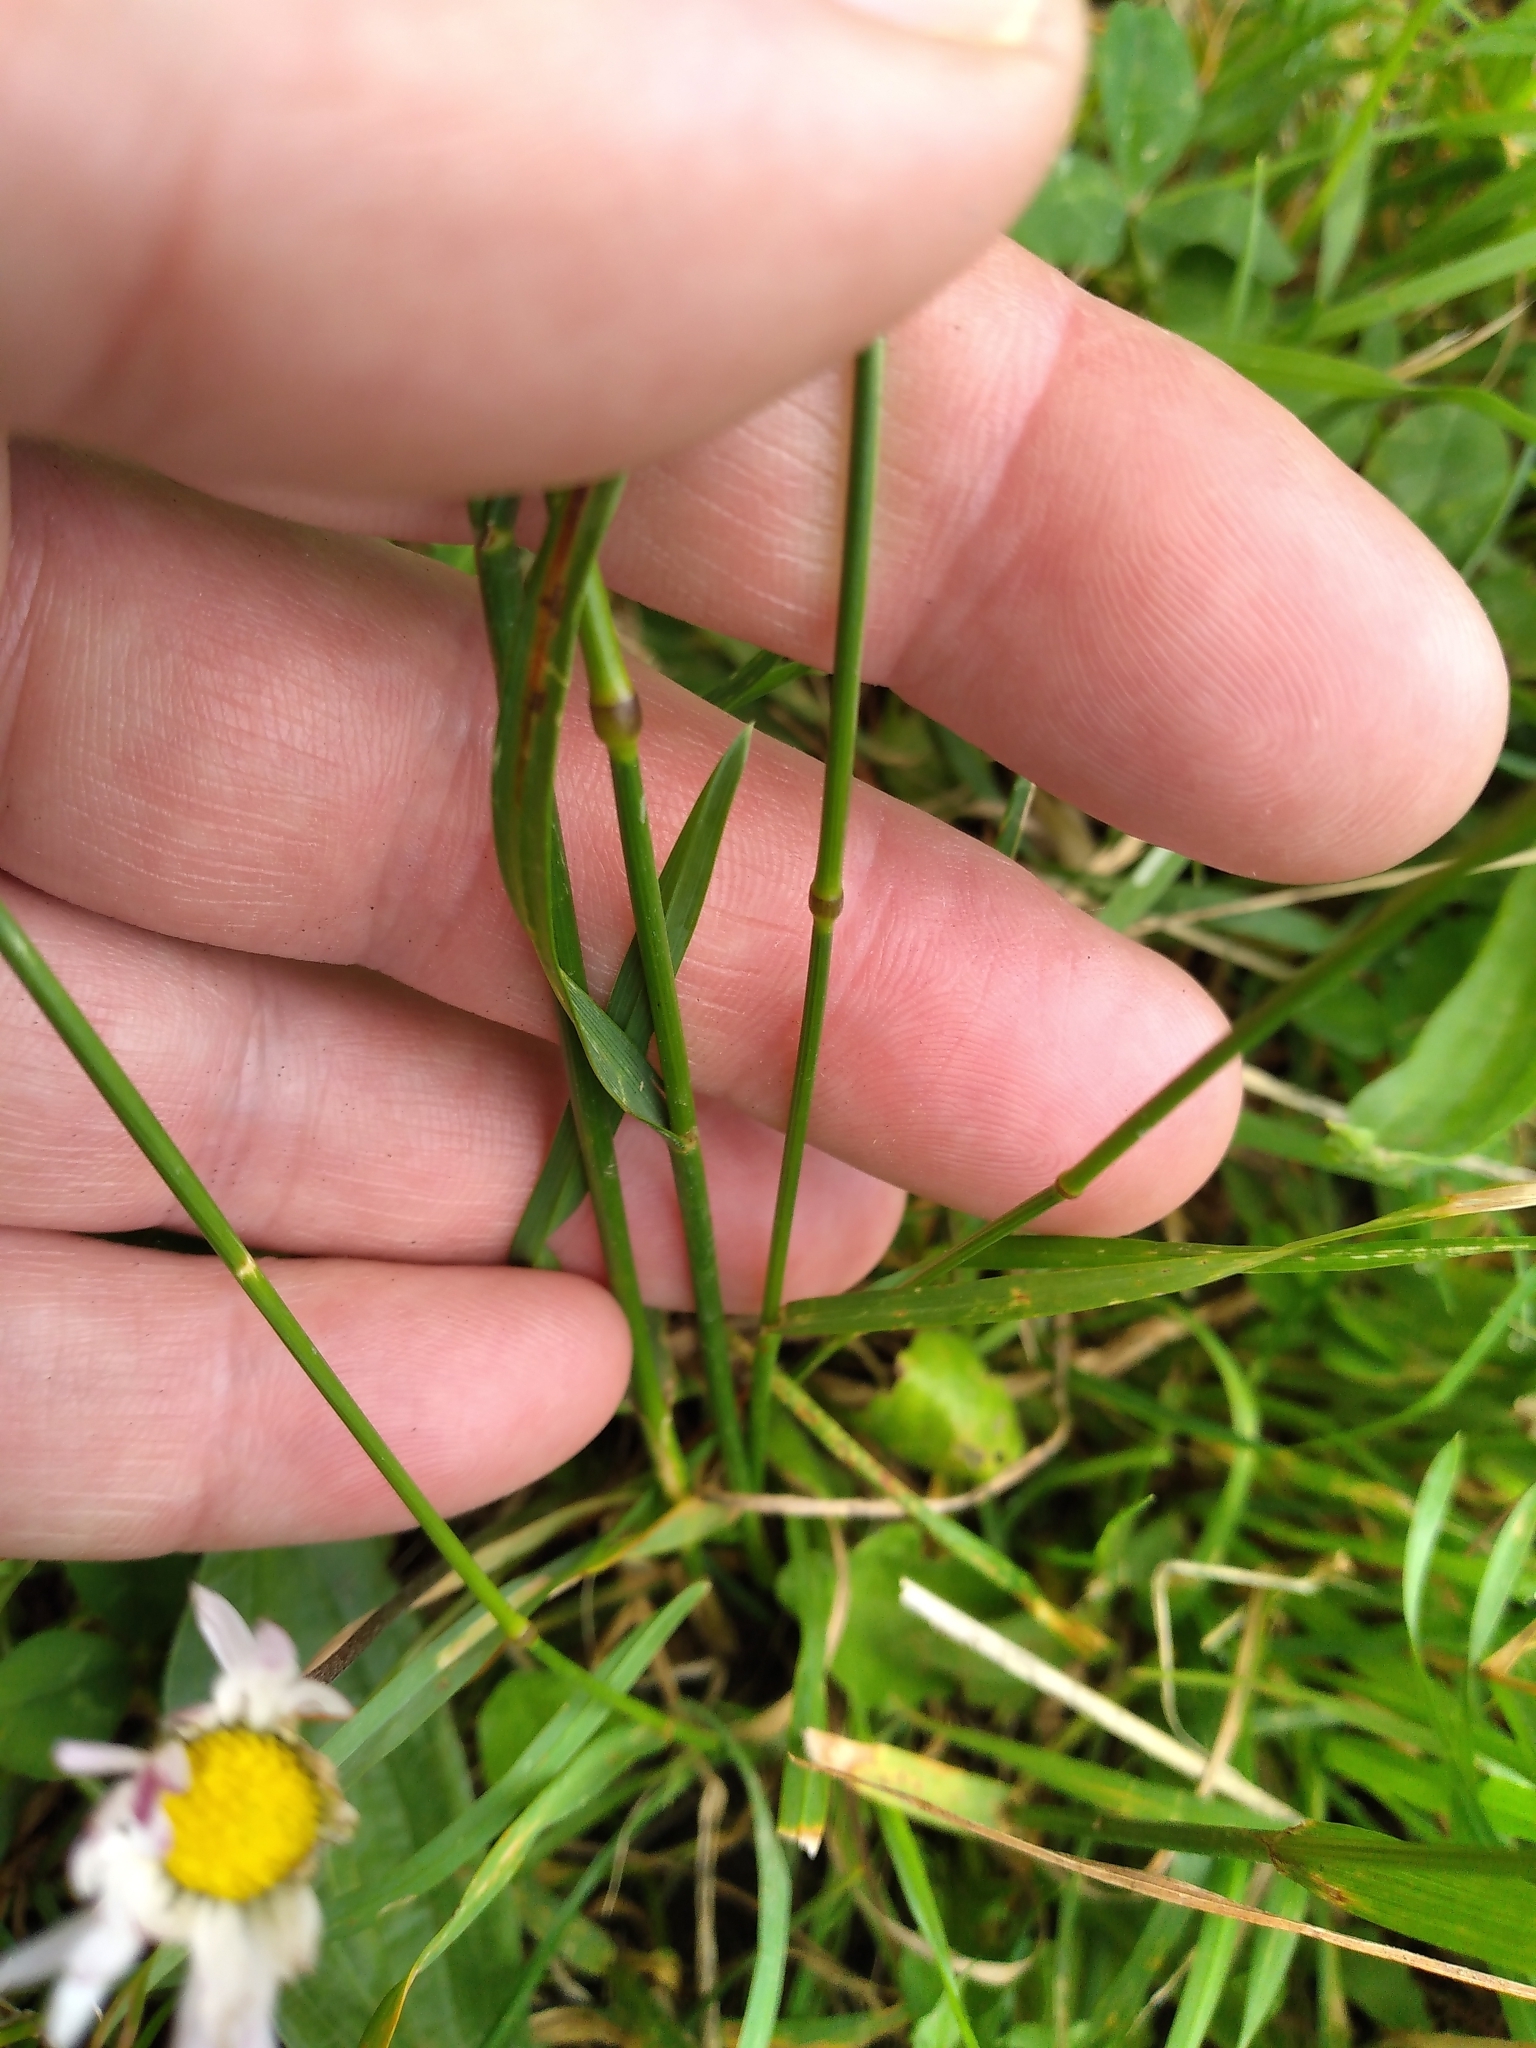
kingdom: Plantae
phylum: Tracheophyta
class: Liliopsida
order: Poales
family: Poaceae
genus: Cynosurus
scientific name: Cynosurus cristatus
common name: Crested dog's-tail
